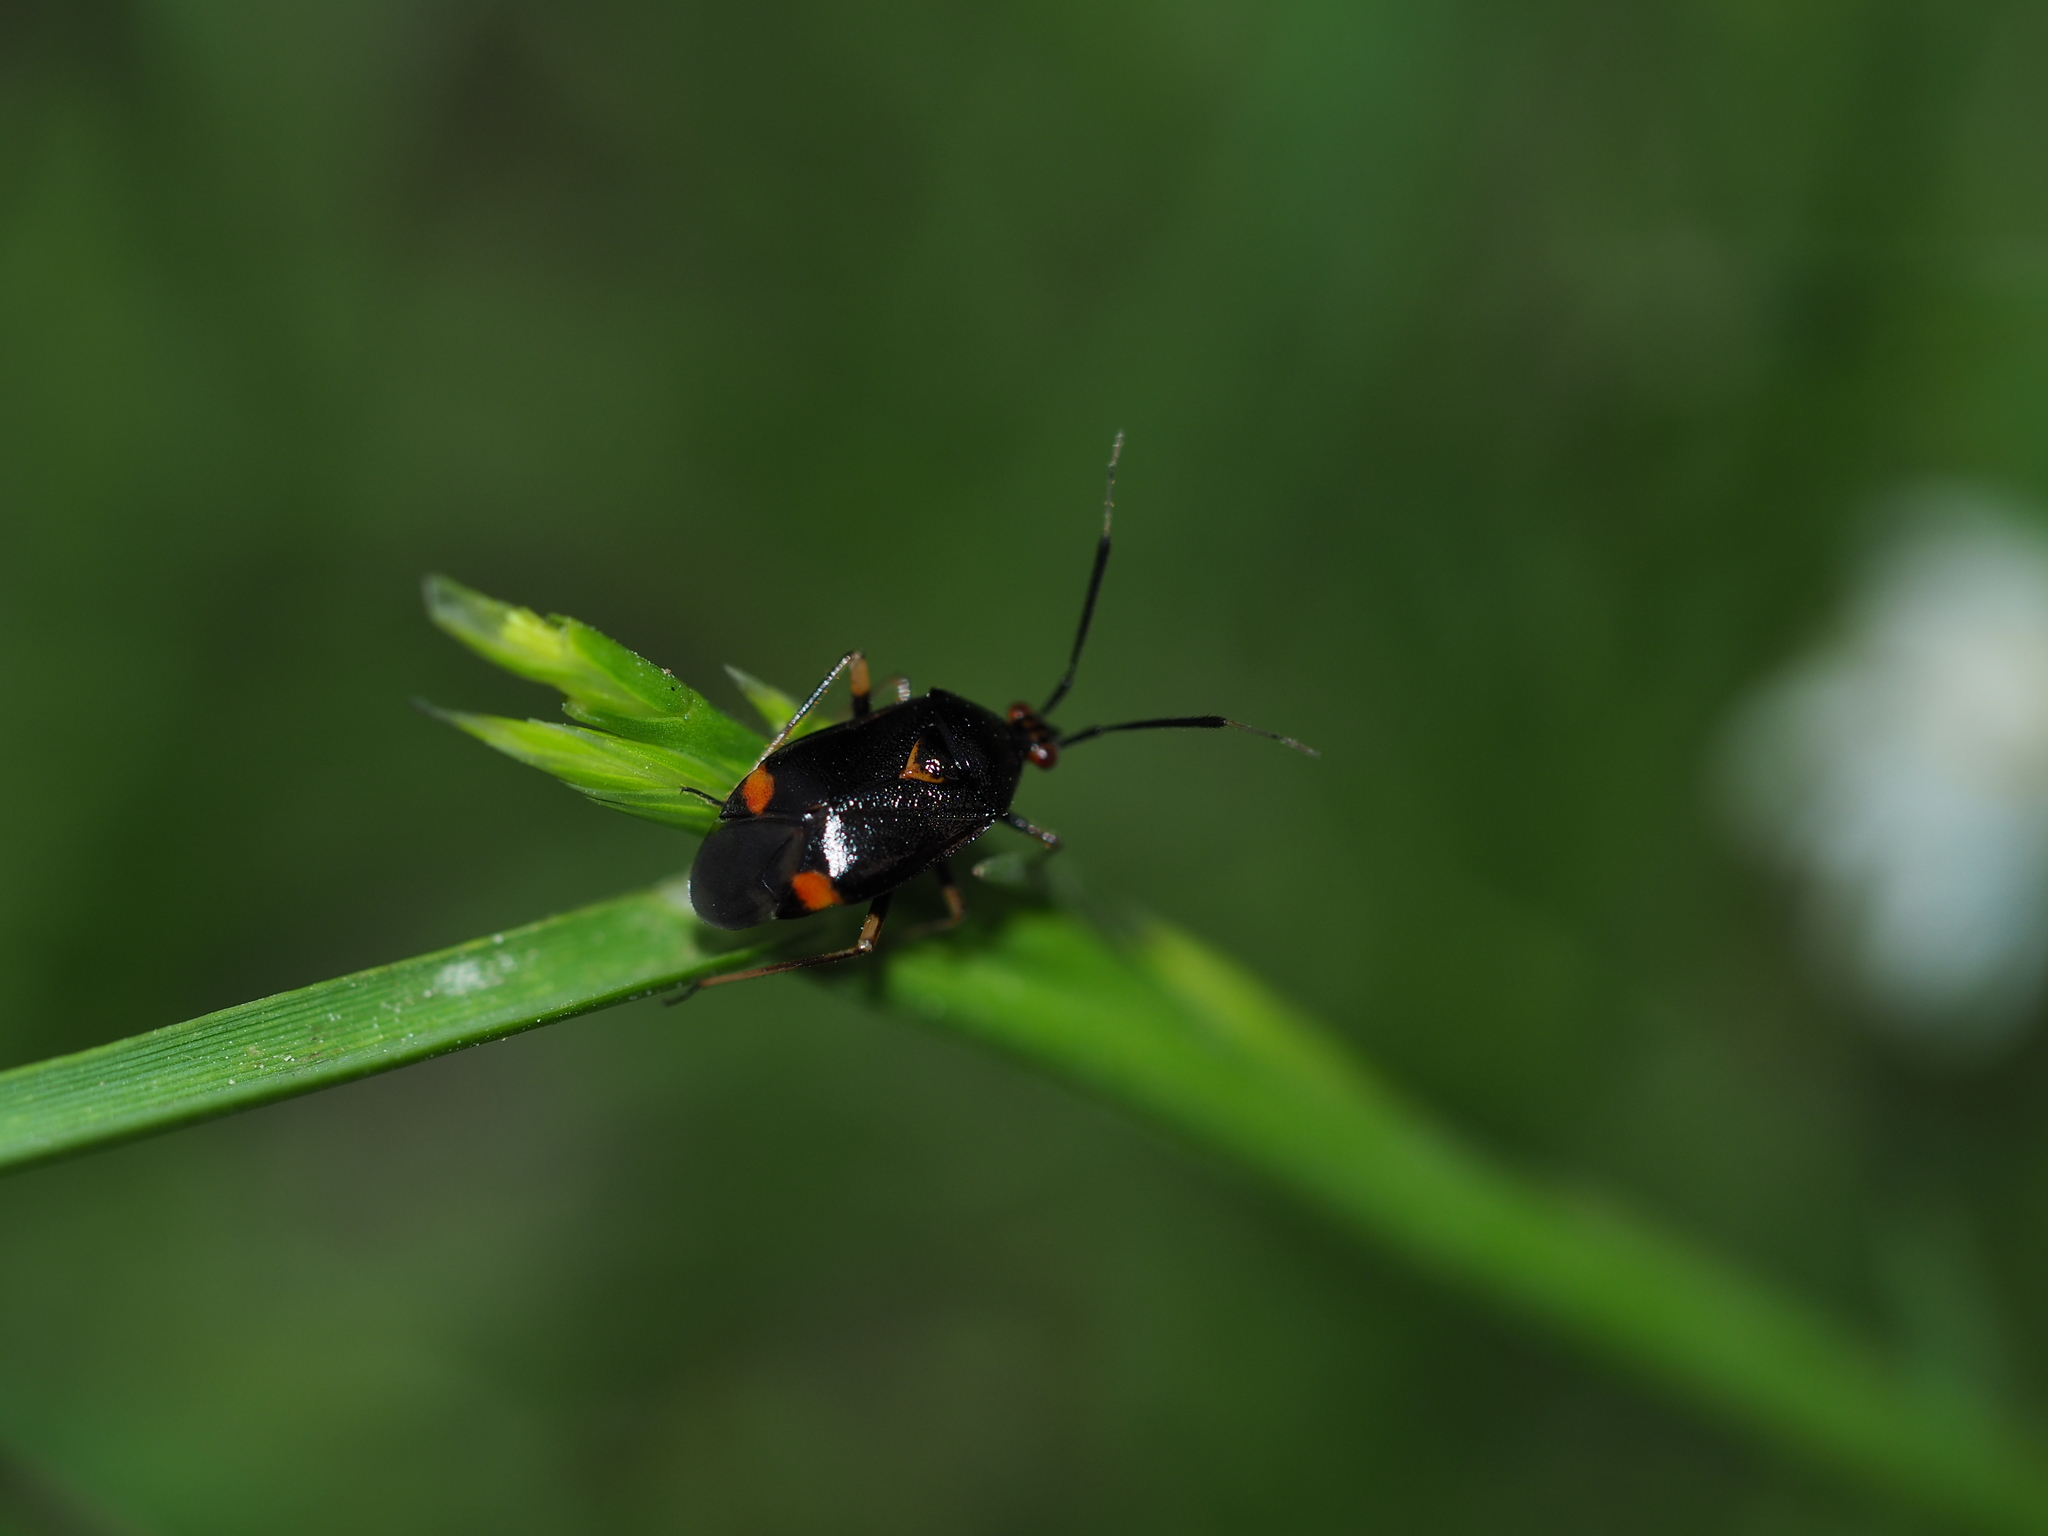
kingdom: Animalia
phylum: Arthropoda
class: Insecta
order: Hemiptera
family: Miridae
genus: Deraeocoris
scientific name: Deraeocoris ruber
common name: Plant bug
